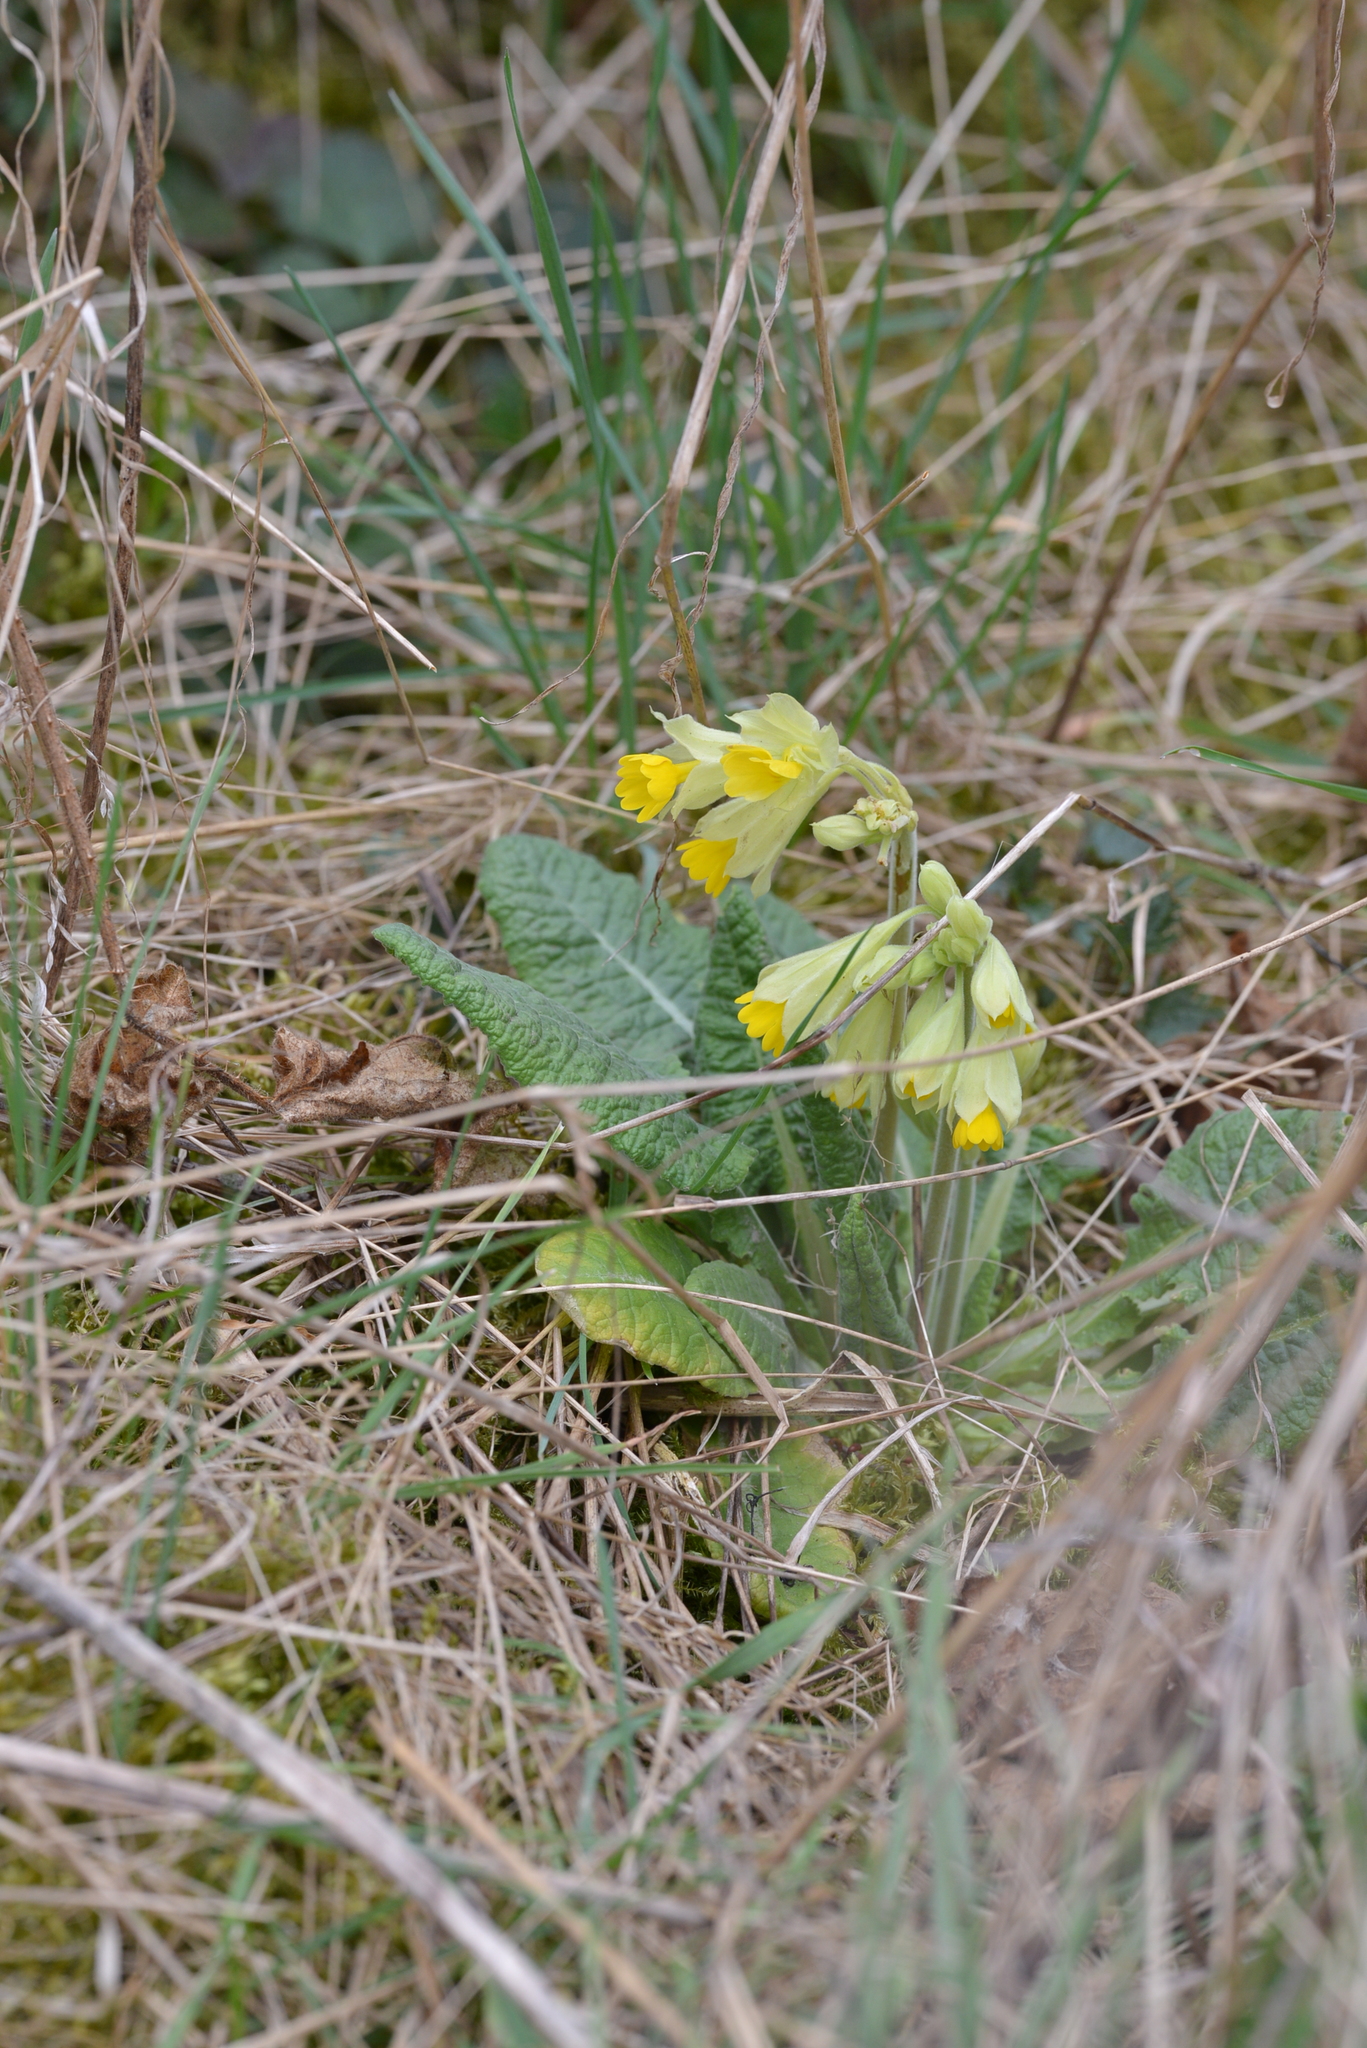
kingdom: Plantae
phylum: Tracheophyta
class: Magnoliopsida
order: Ericales
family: Primulaceae
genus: Primula
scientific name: Primula veris
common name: Cowslip
